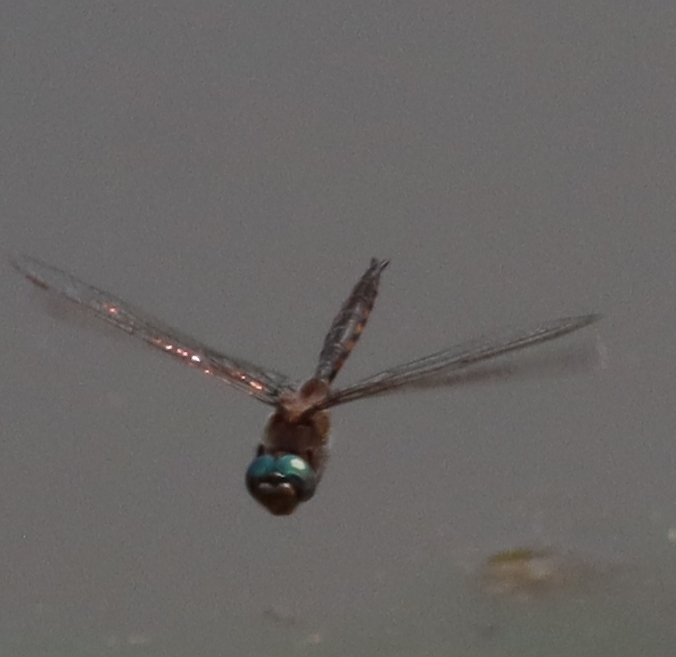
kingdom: Animalia
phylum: Arthropoda
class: Insecta
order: Odonata
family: Corduliidae
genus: Epitheca
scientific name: Epitheca
